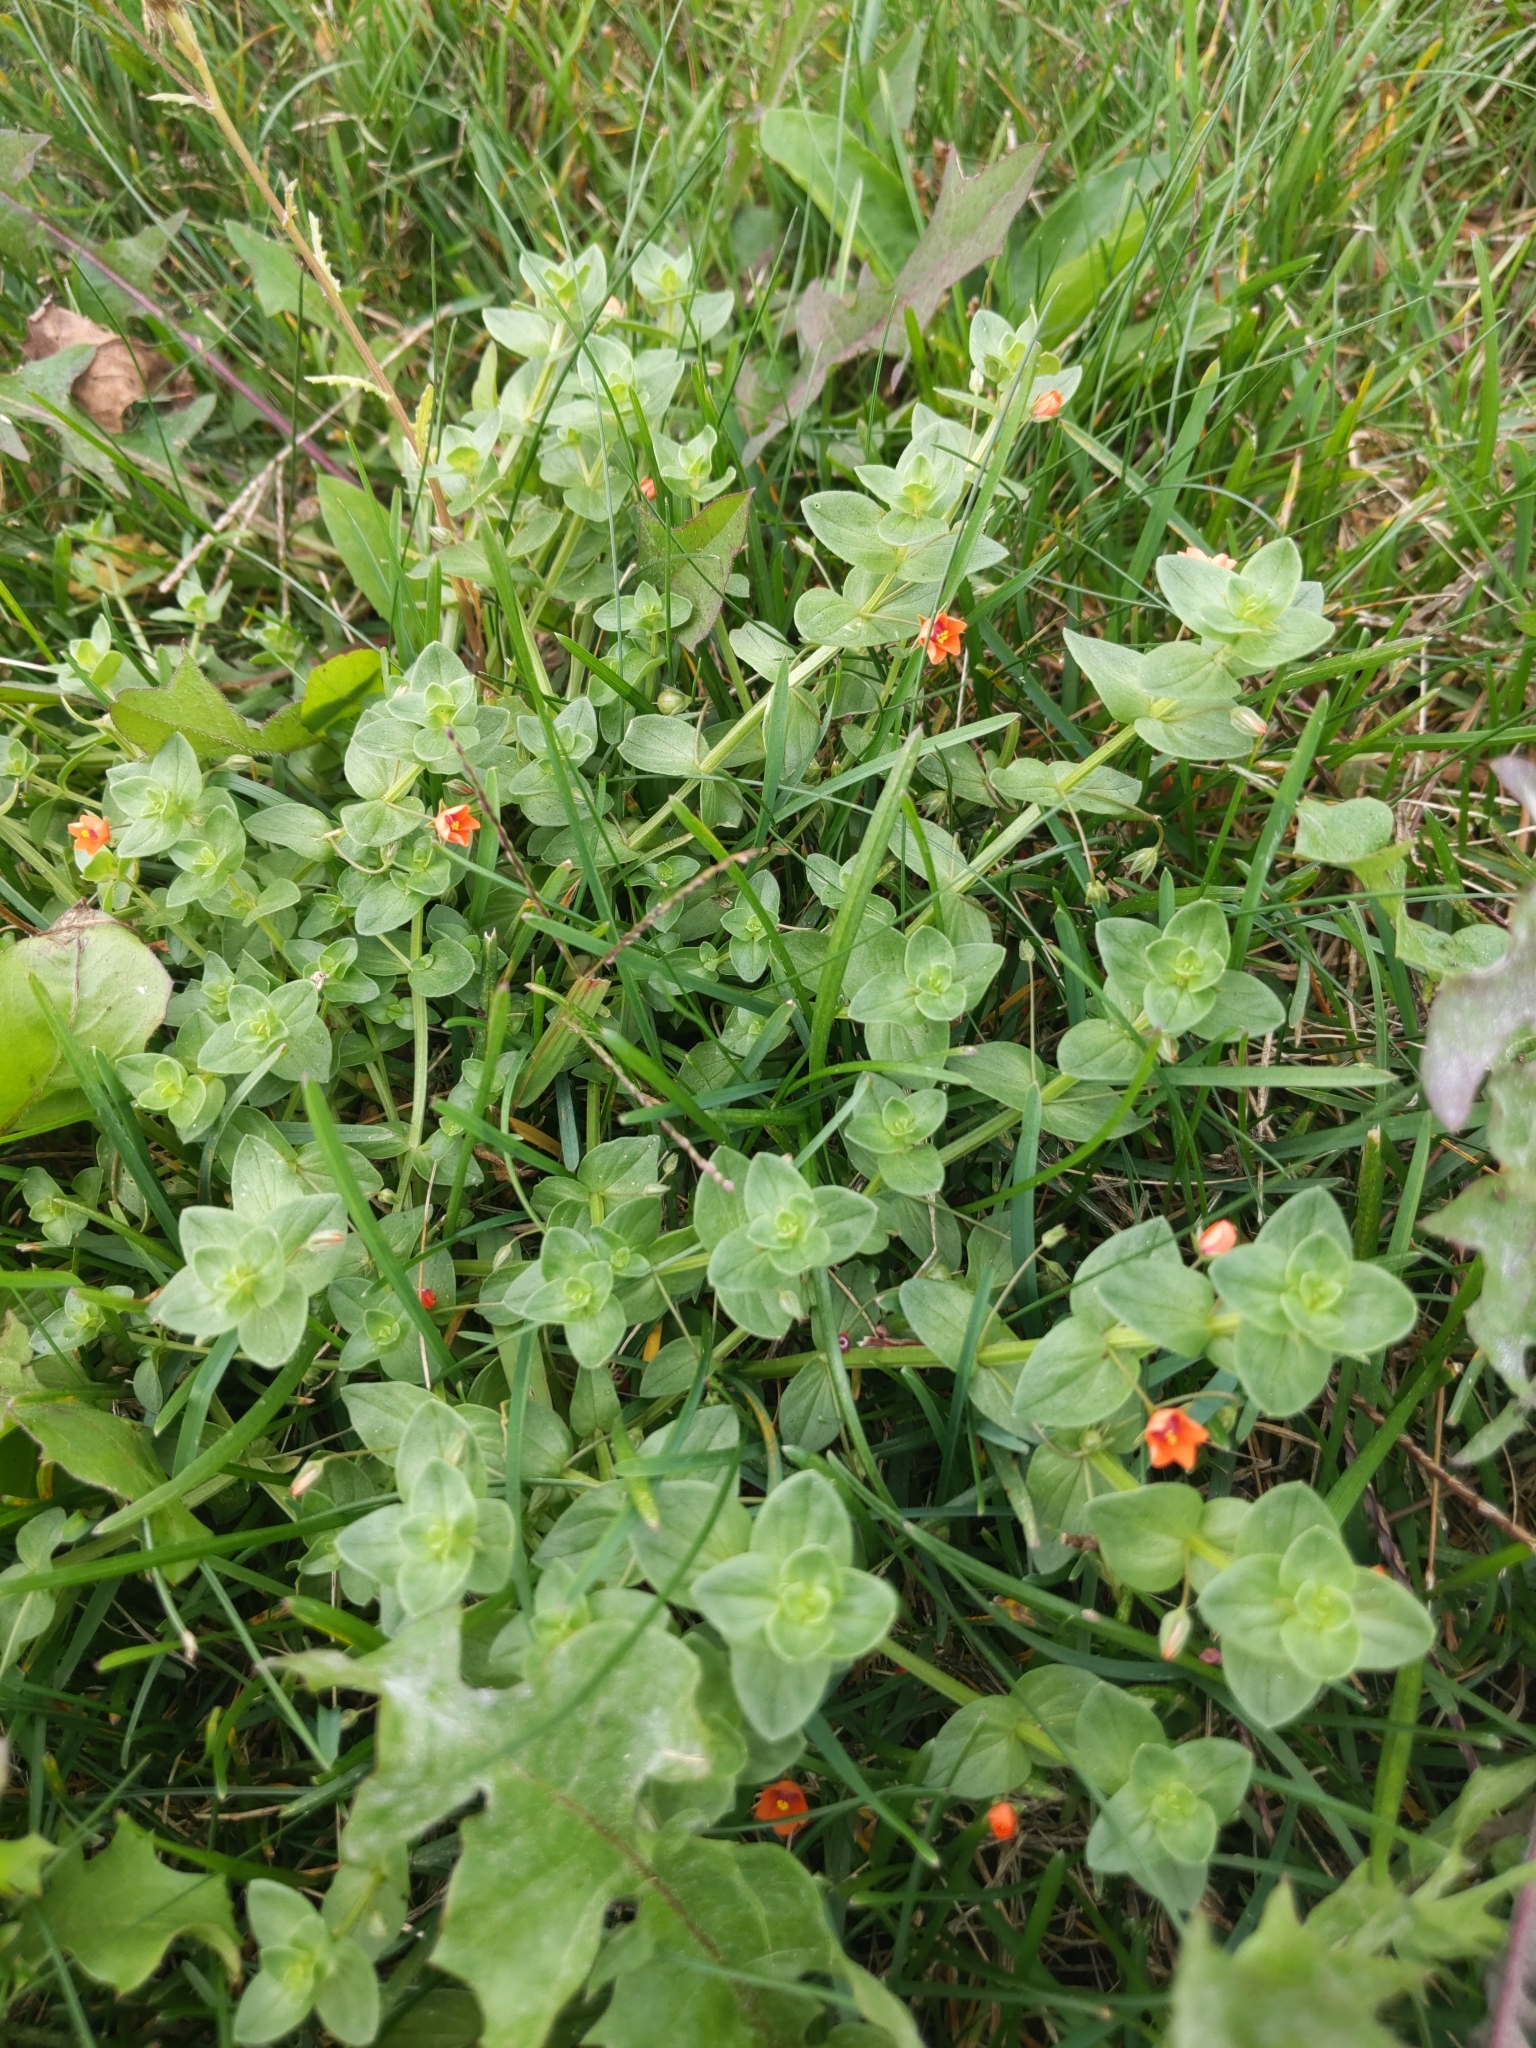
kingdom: Plantae
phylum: Tracheophyta
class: Magnoliopsida
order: Ericales
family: Primulaceae
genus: Lysimachia
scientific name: Lysimachia arvensis
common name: Scarlet pimpernel
